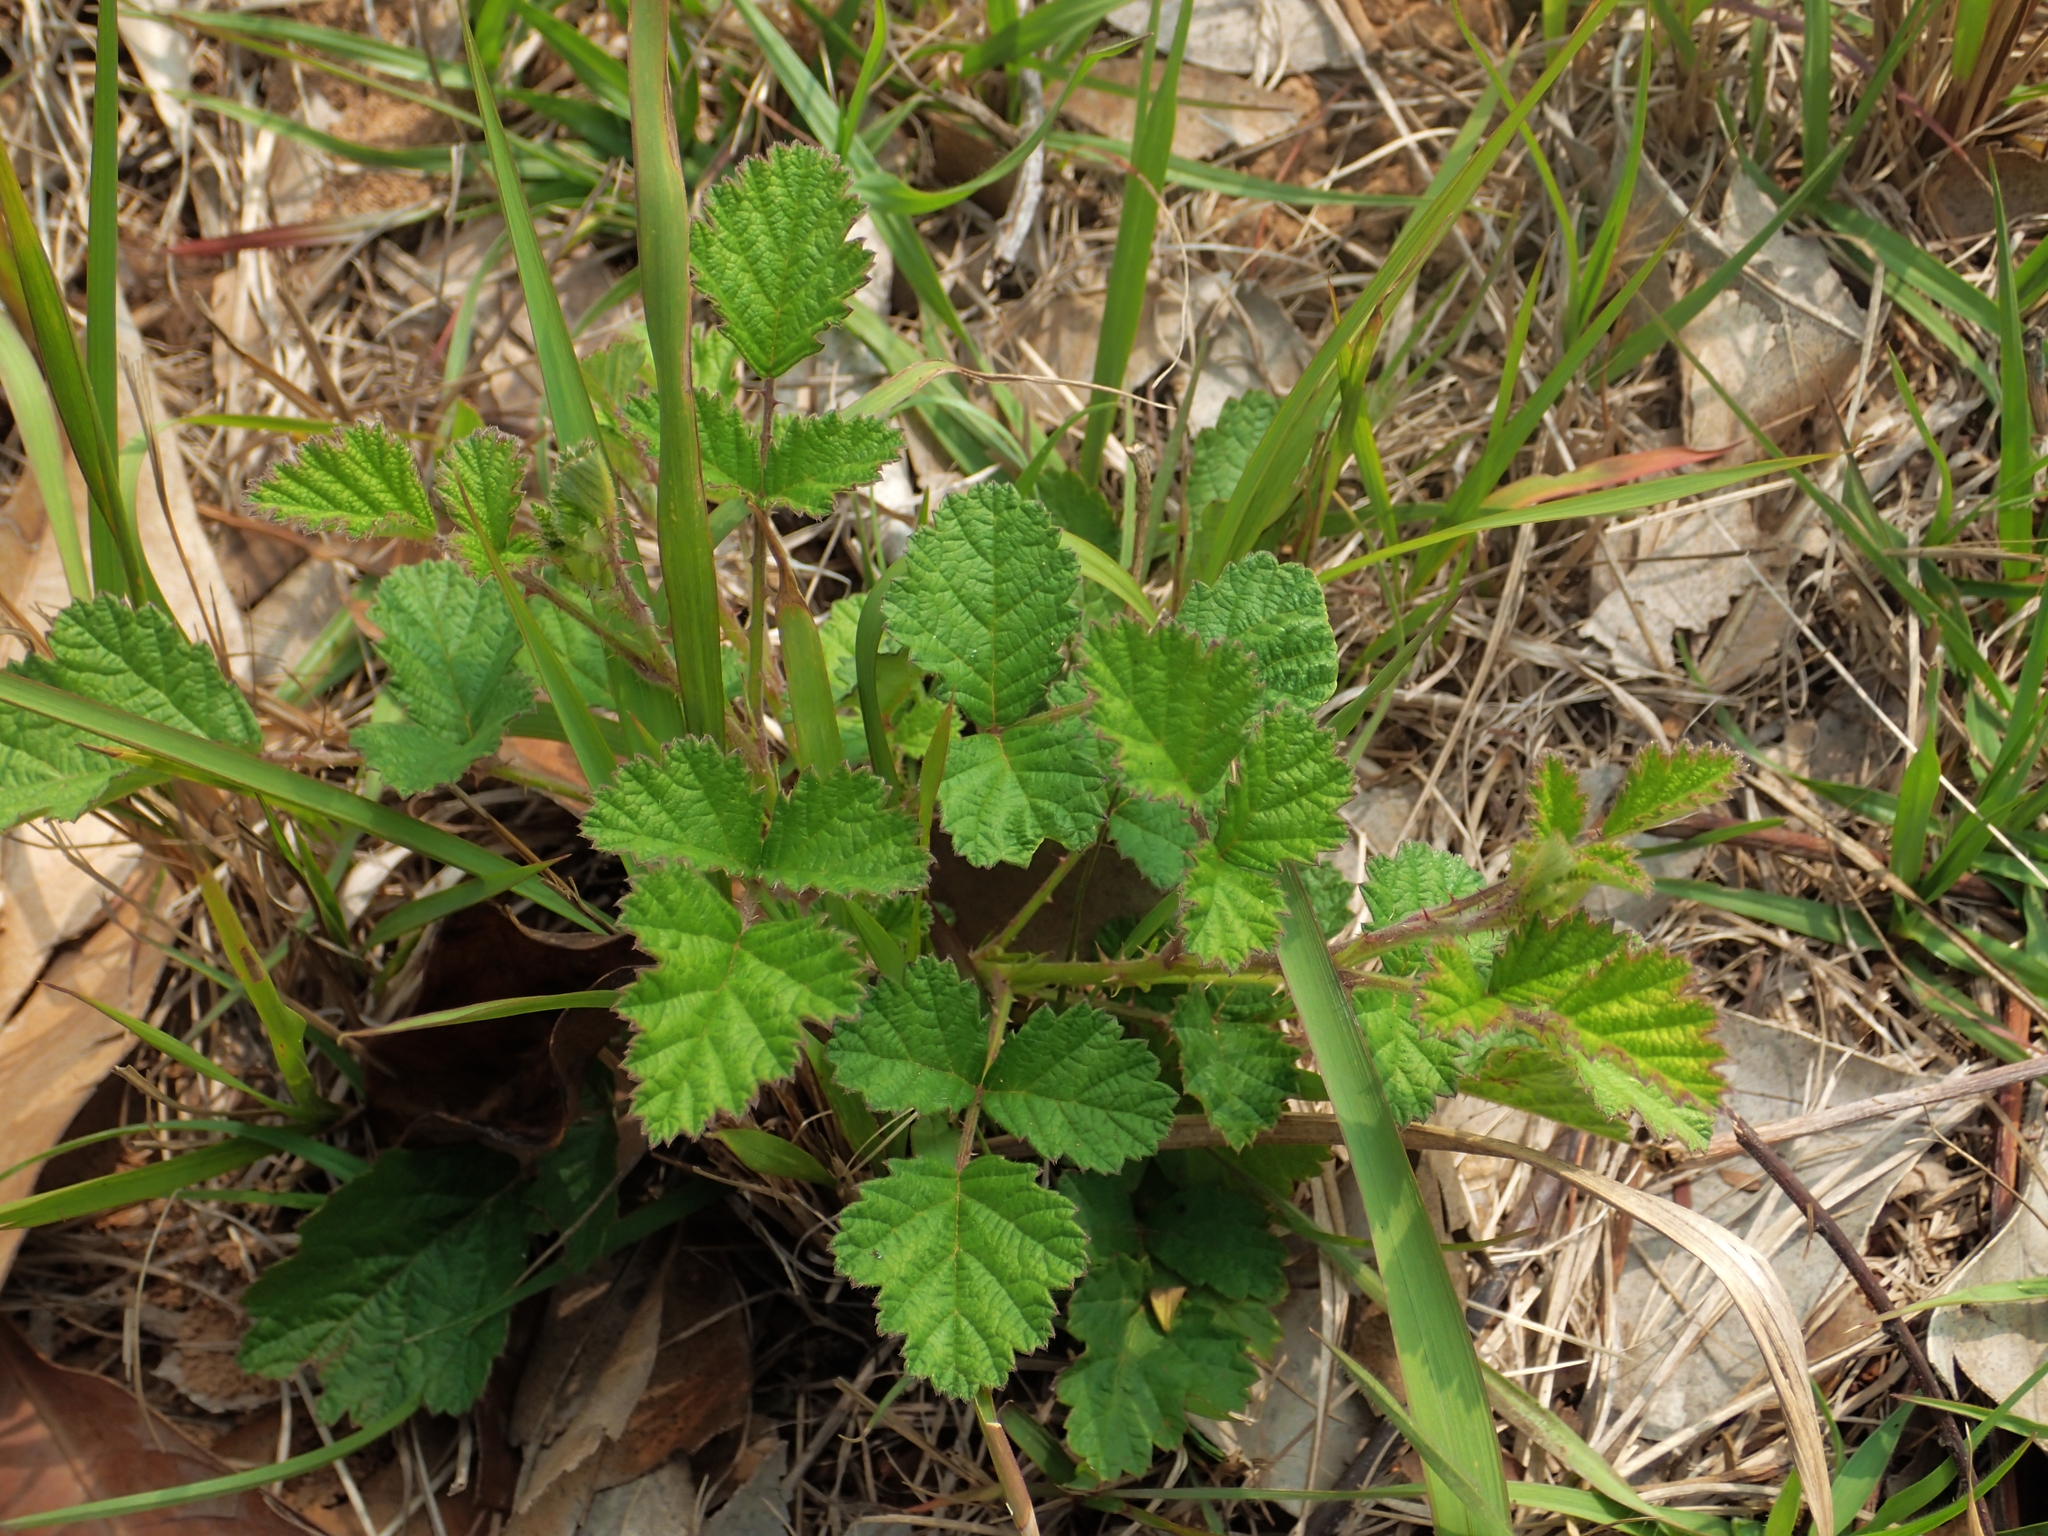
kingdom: Plantae
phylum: Tracheophyta
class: Magnoliopsida
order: Rosales
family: Rosaceae
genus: Rubus
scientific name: Rubus parvifolius
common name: Threeleaf blackberry
